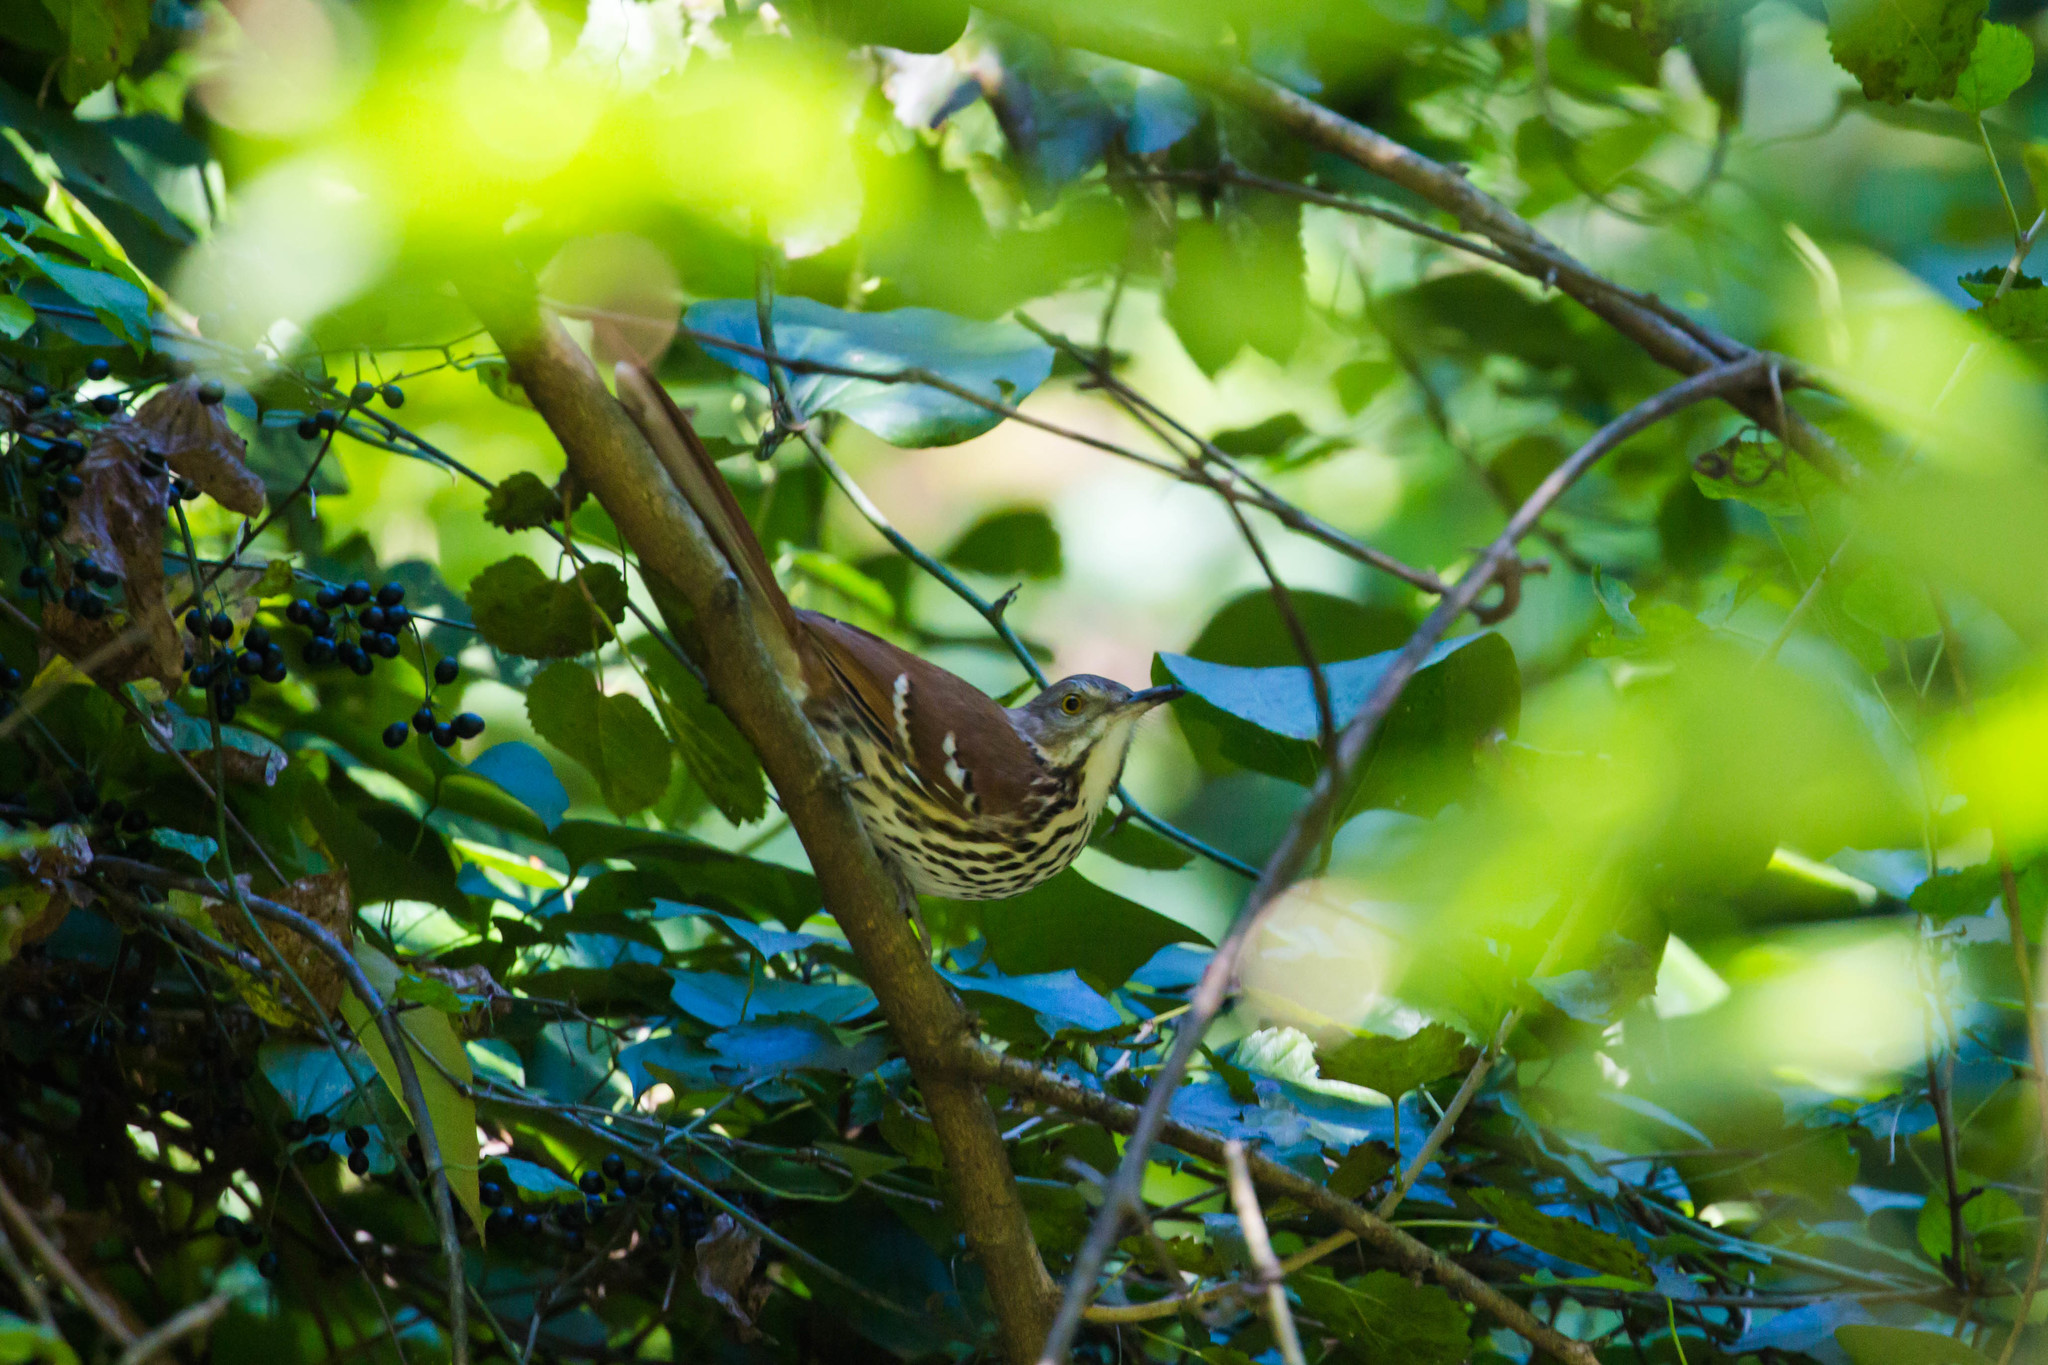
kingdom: Animalia
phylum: Chordata
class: Aves
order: Passeriformes
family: Mimidae
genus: Toxostoma
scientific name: Toxostoma rufum
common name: Brown thrasher
